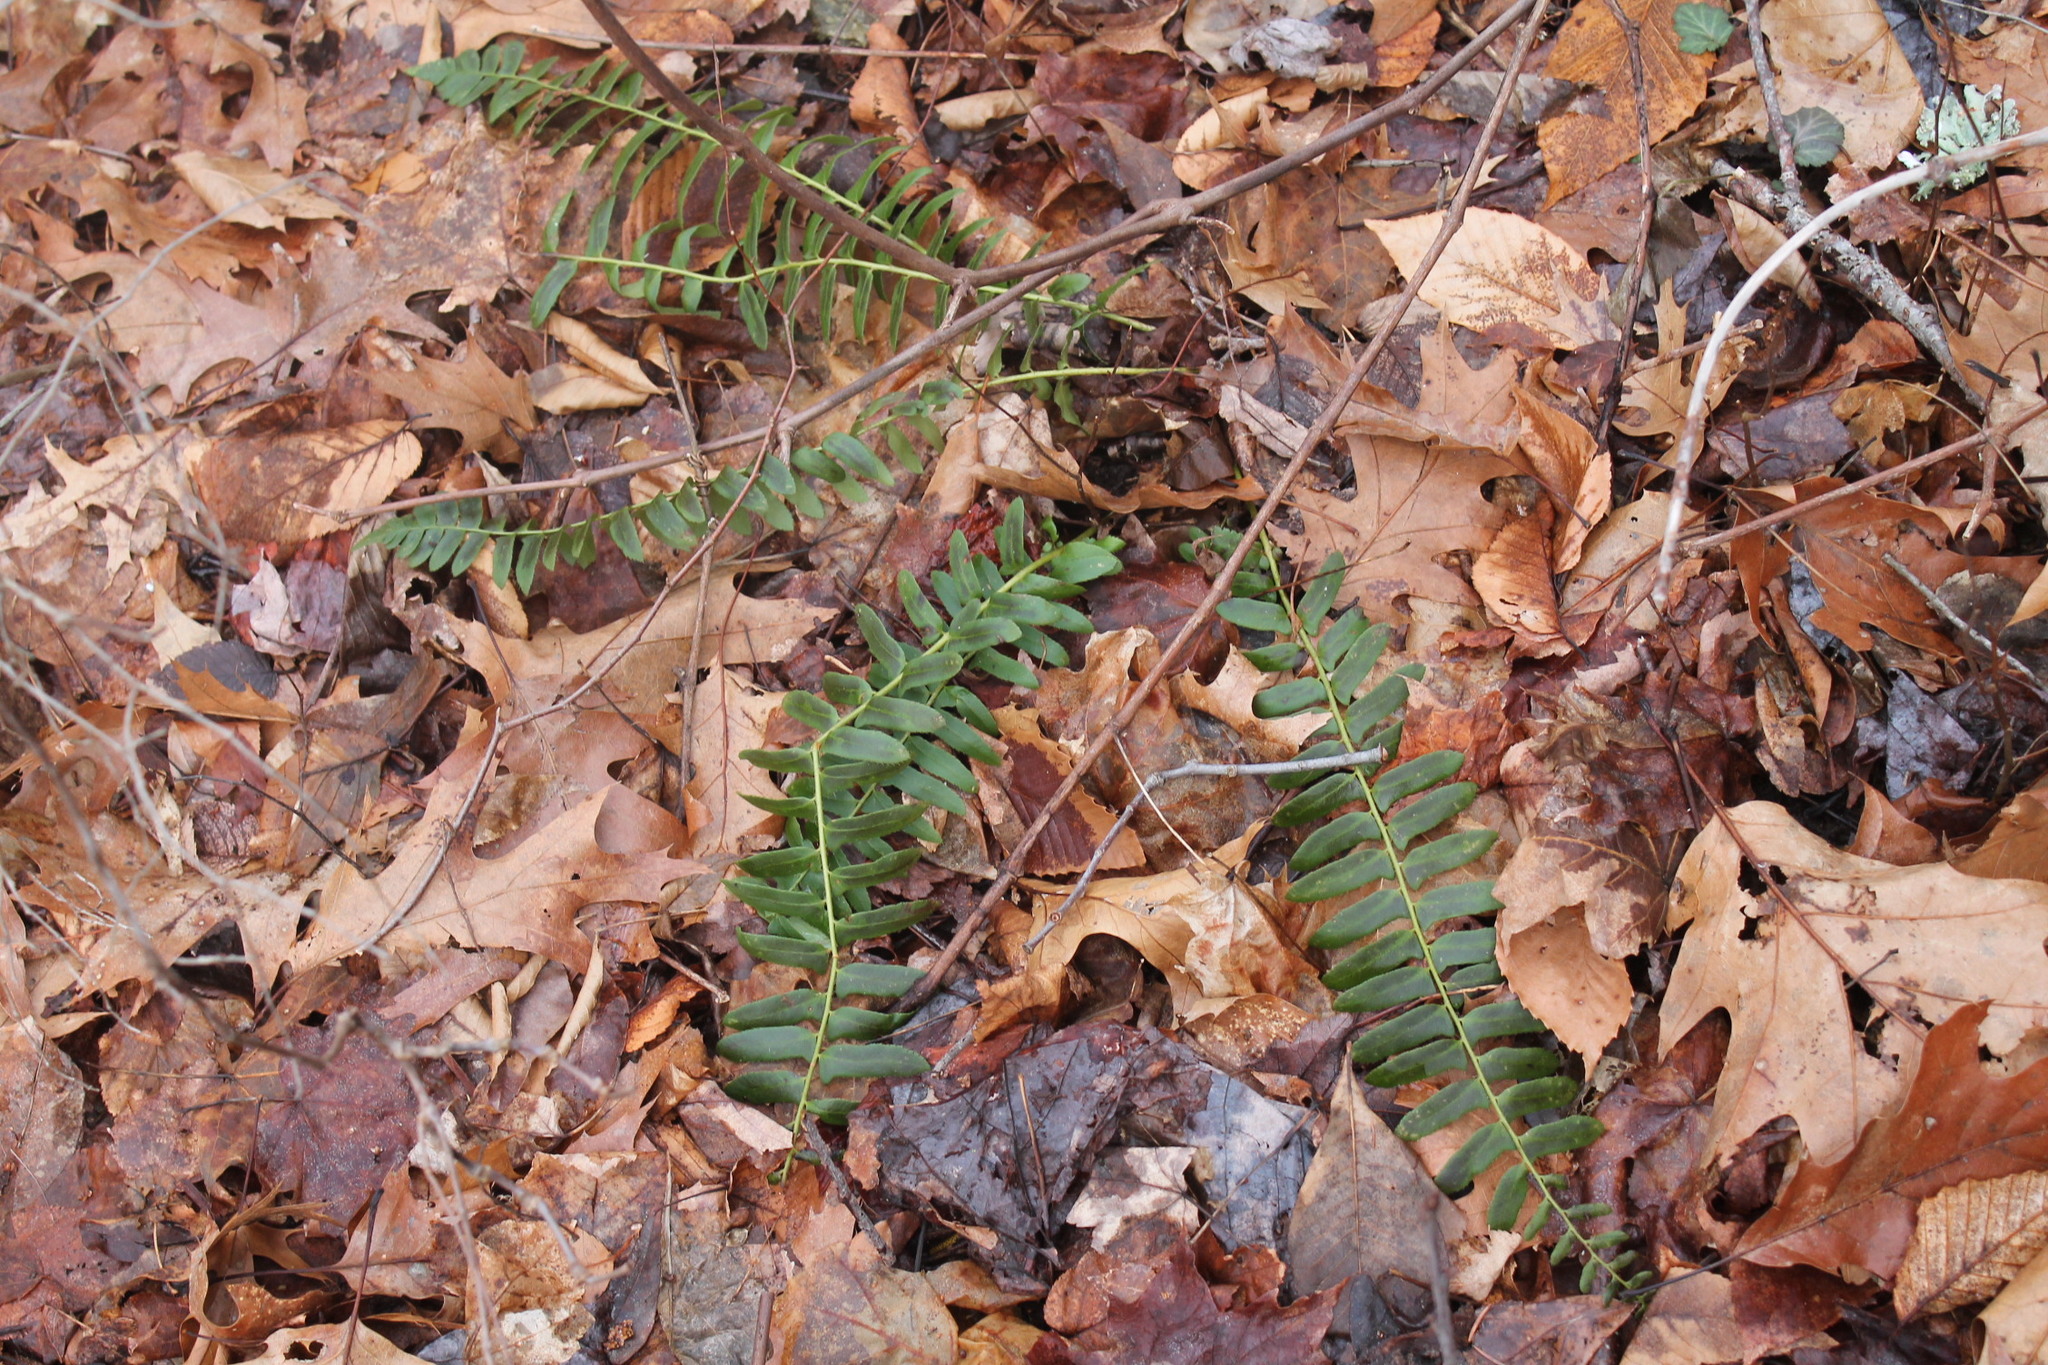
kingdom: Plantae
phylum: Tracheophyta
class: Polypodiopsida
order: Polypodiales
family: Dryopteridaceae
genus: Polystichum
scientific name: Polystichum acrostichoides
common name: Christmas fern
